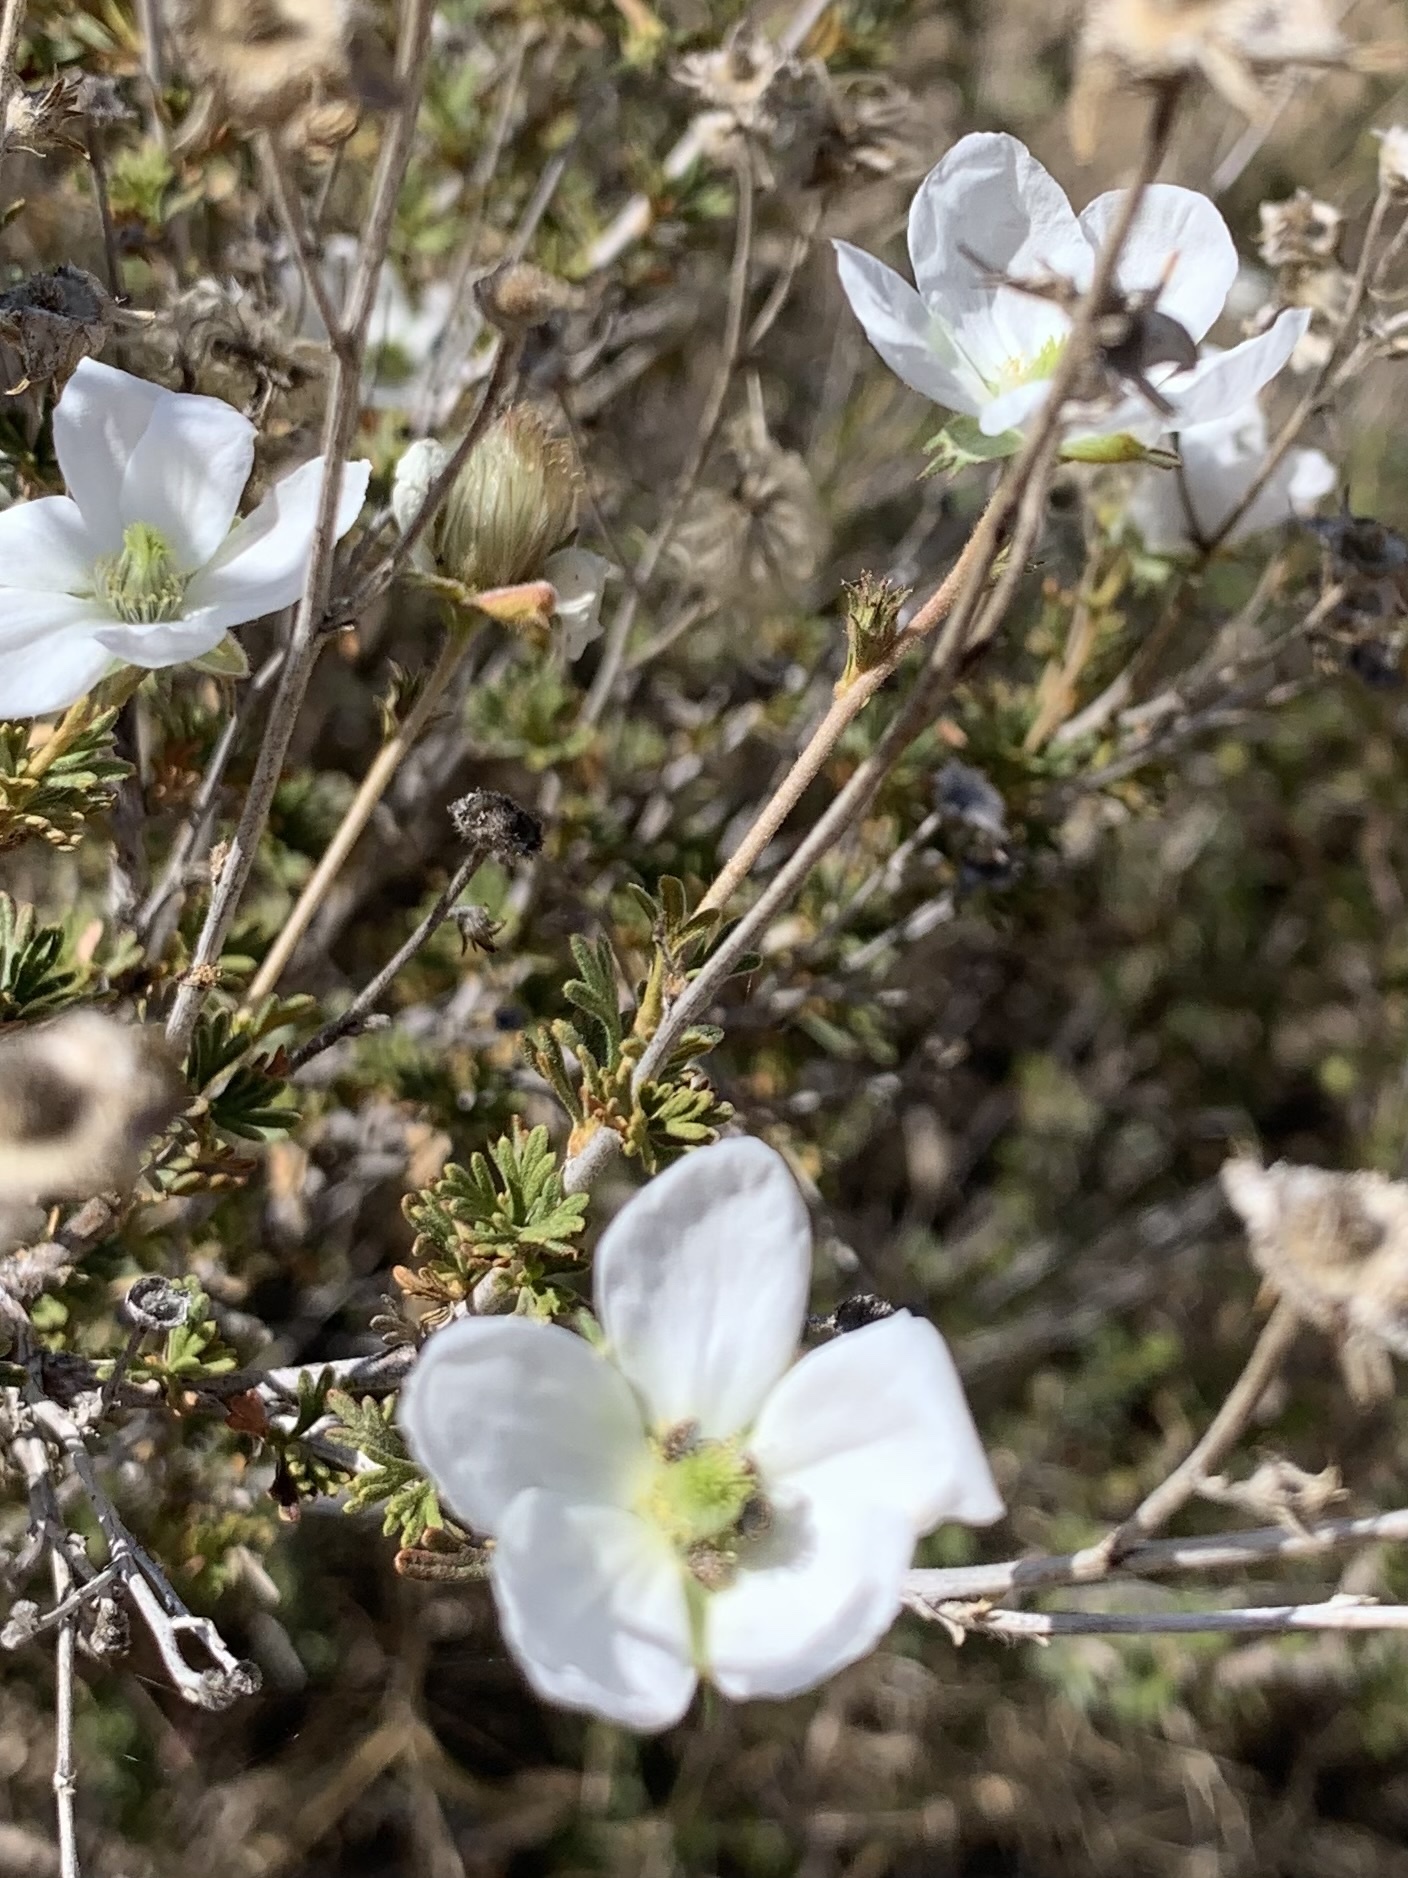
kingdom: Plantae
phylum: Tracheophyta
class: Magnoliopsida
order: Rosales
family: Rosaceae
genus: Fallugia
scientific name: Fallugia paradoxa
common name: Apache-plume
